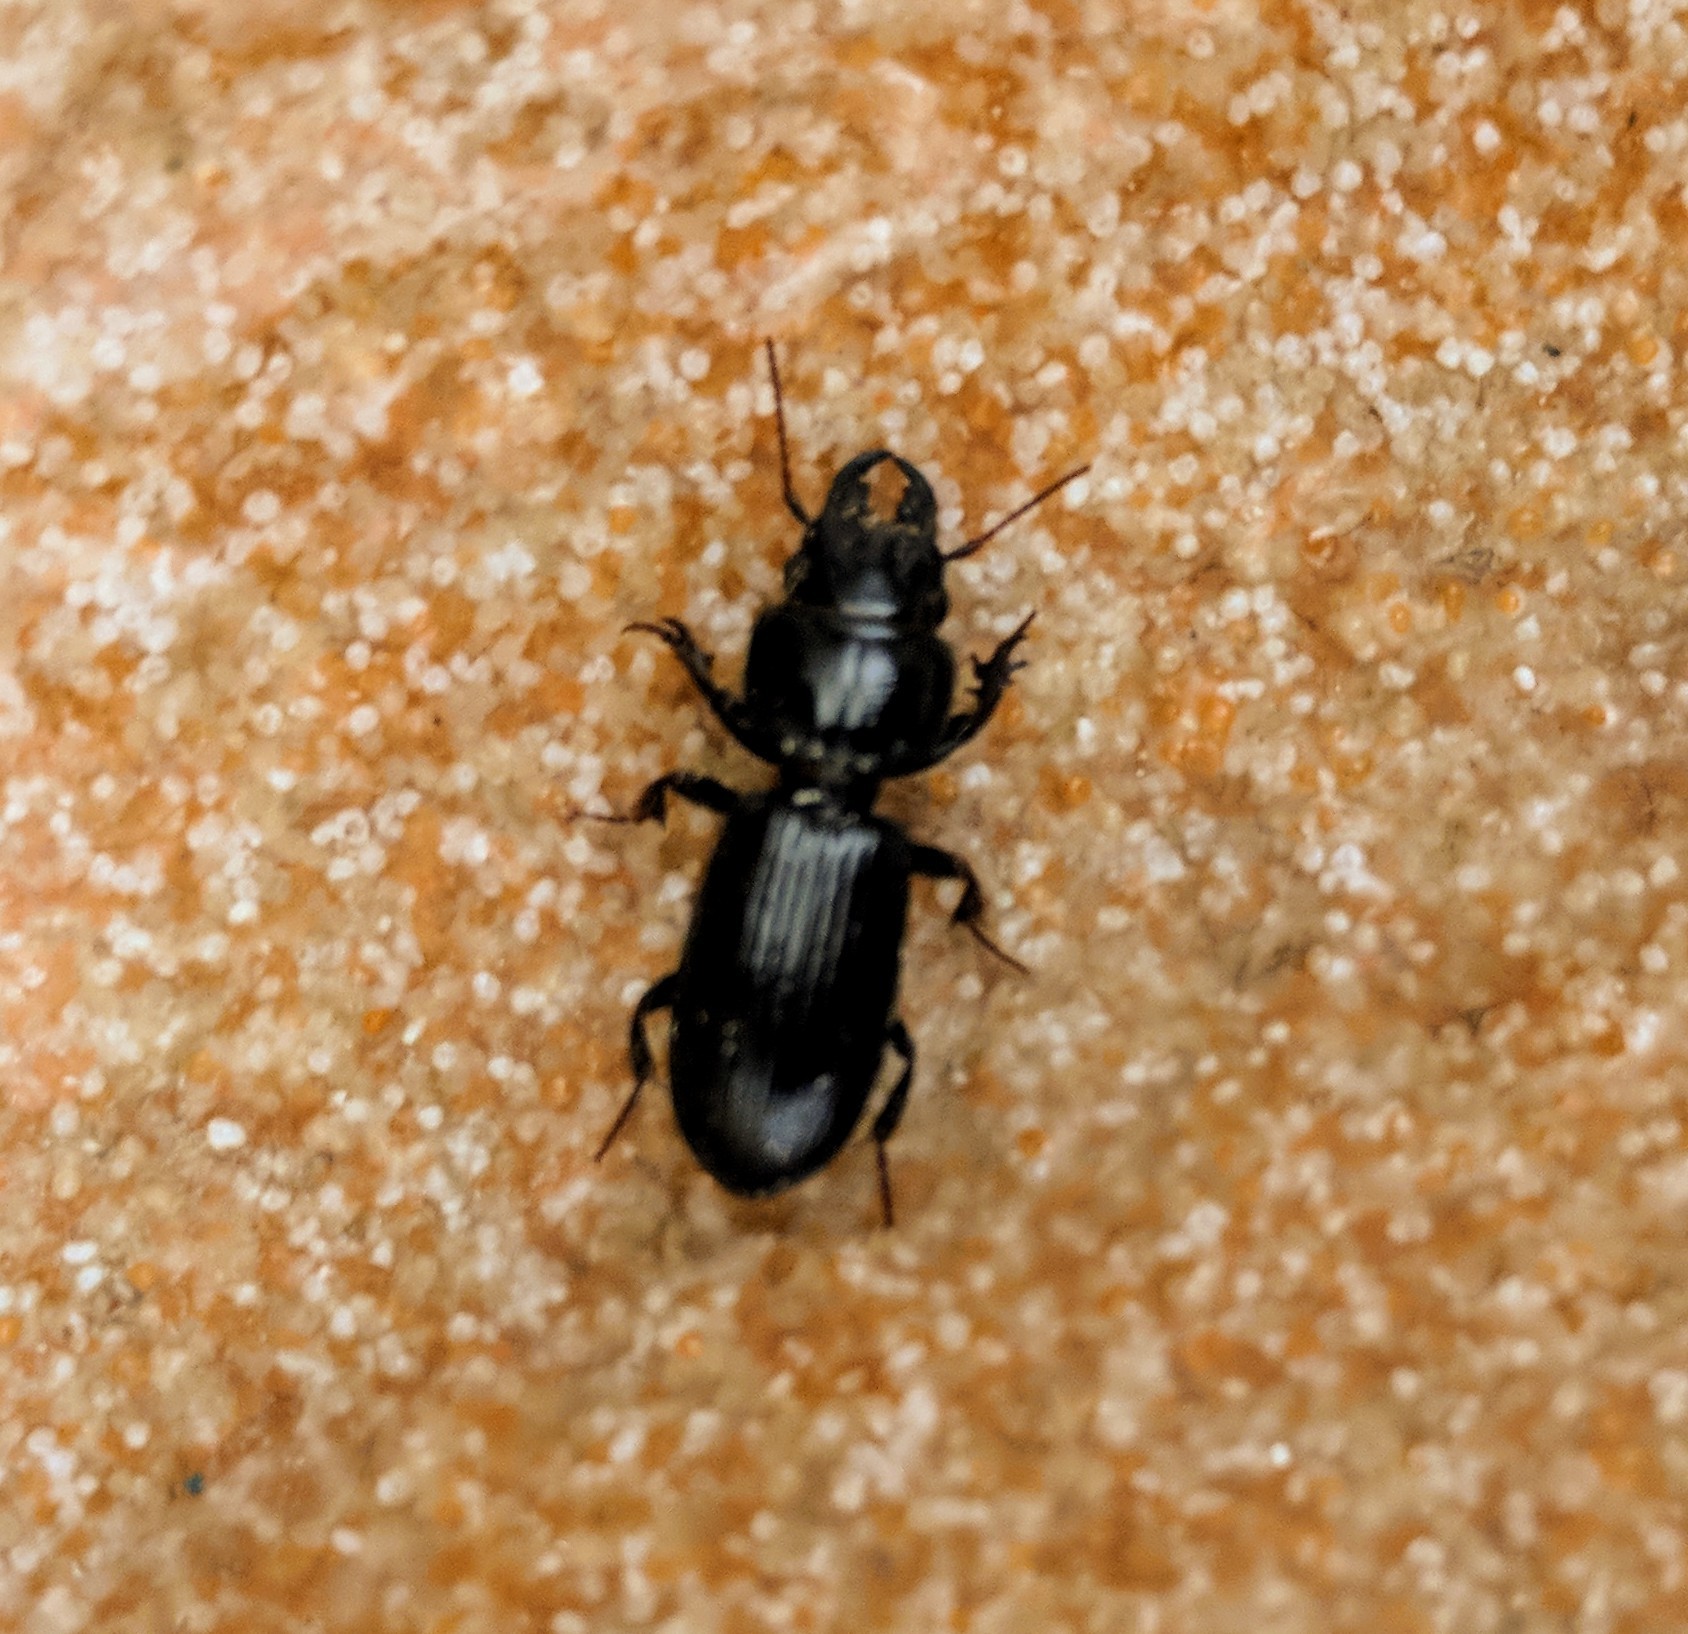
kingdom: Animalia
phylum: Arthropoda
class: Insecta
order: Coleoptera
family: Carabidae
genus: Scarites
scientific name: Scarites subterraneus
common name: Big-headed ground beetle
